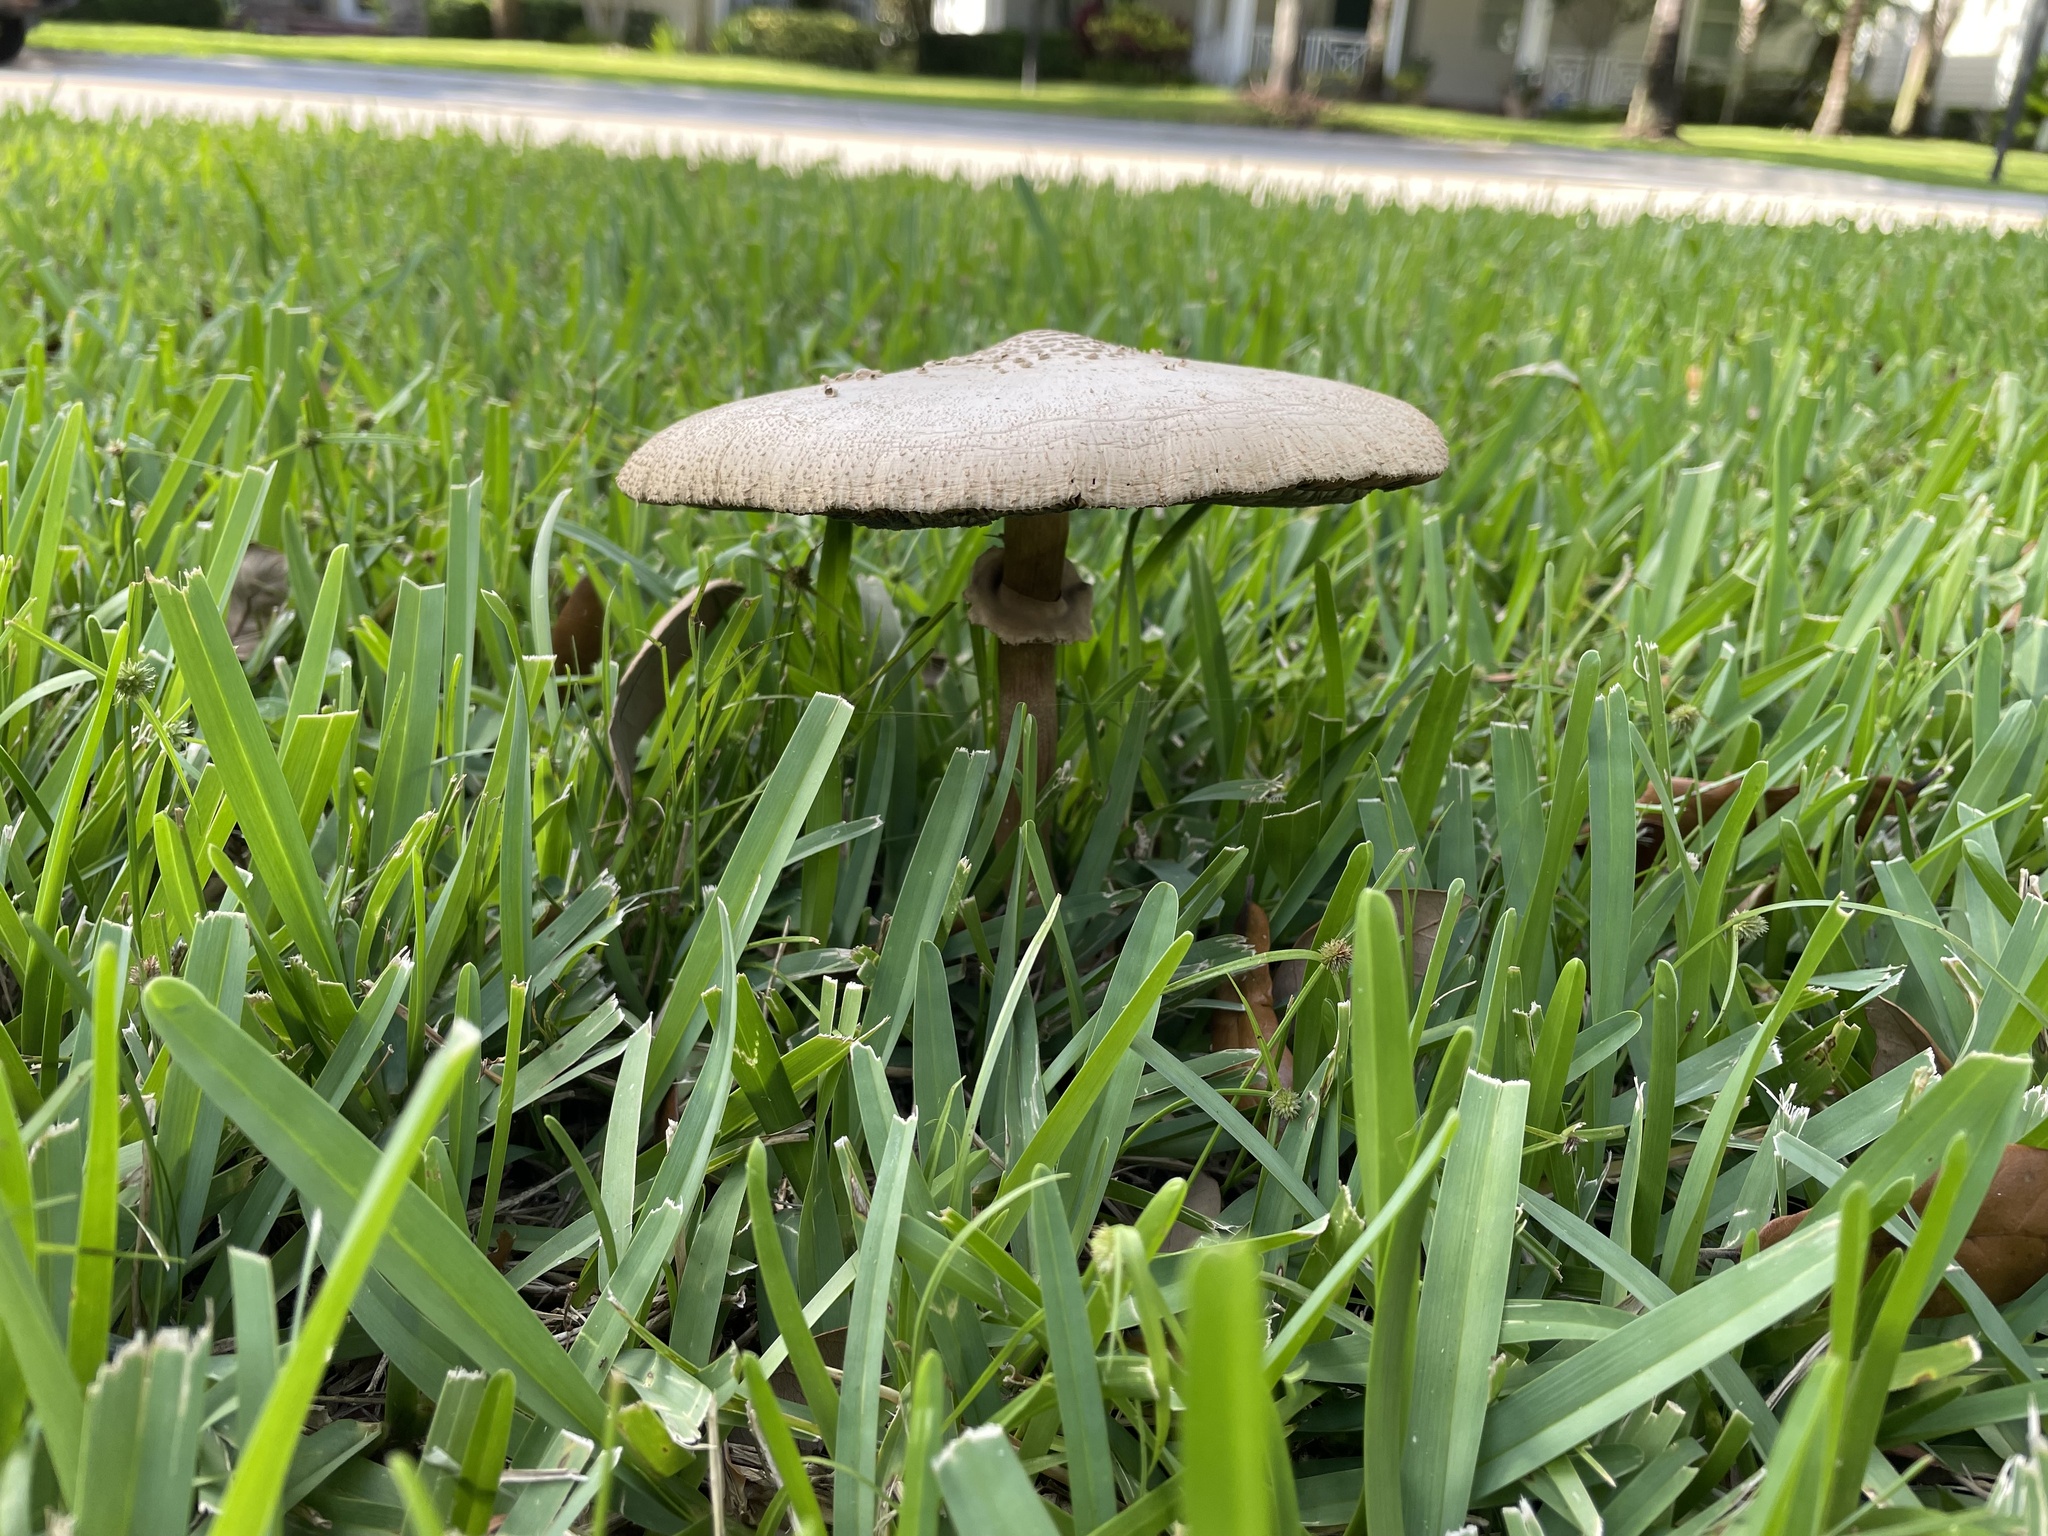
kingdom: Fungi
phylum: Basidiomycota
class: Agaricomycetes
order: Agaricales
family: Agaricaceae
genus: Chlorophyllum
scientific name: Chlorophyllum molybdites
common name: False parasol
